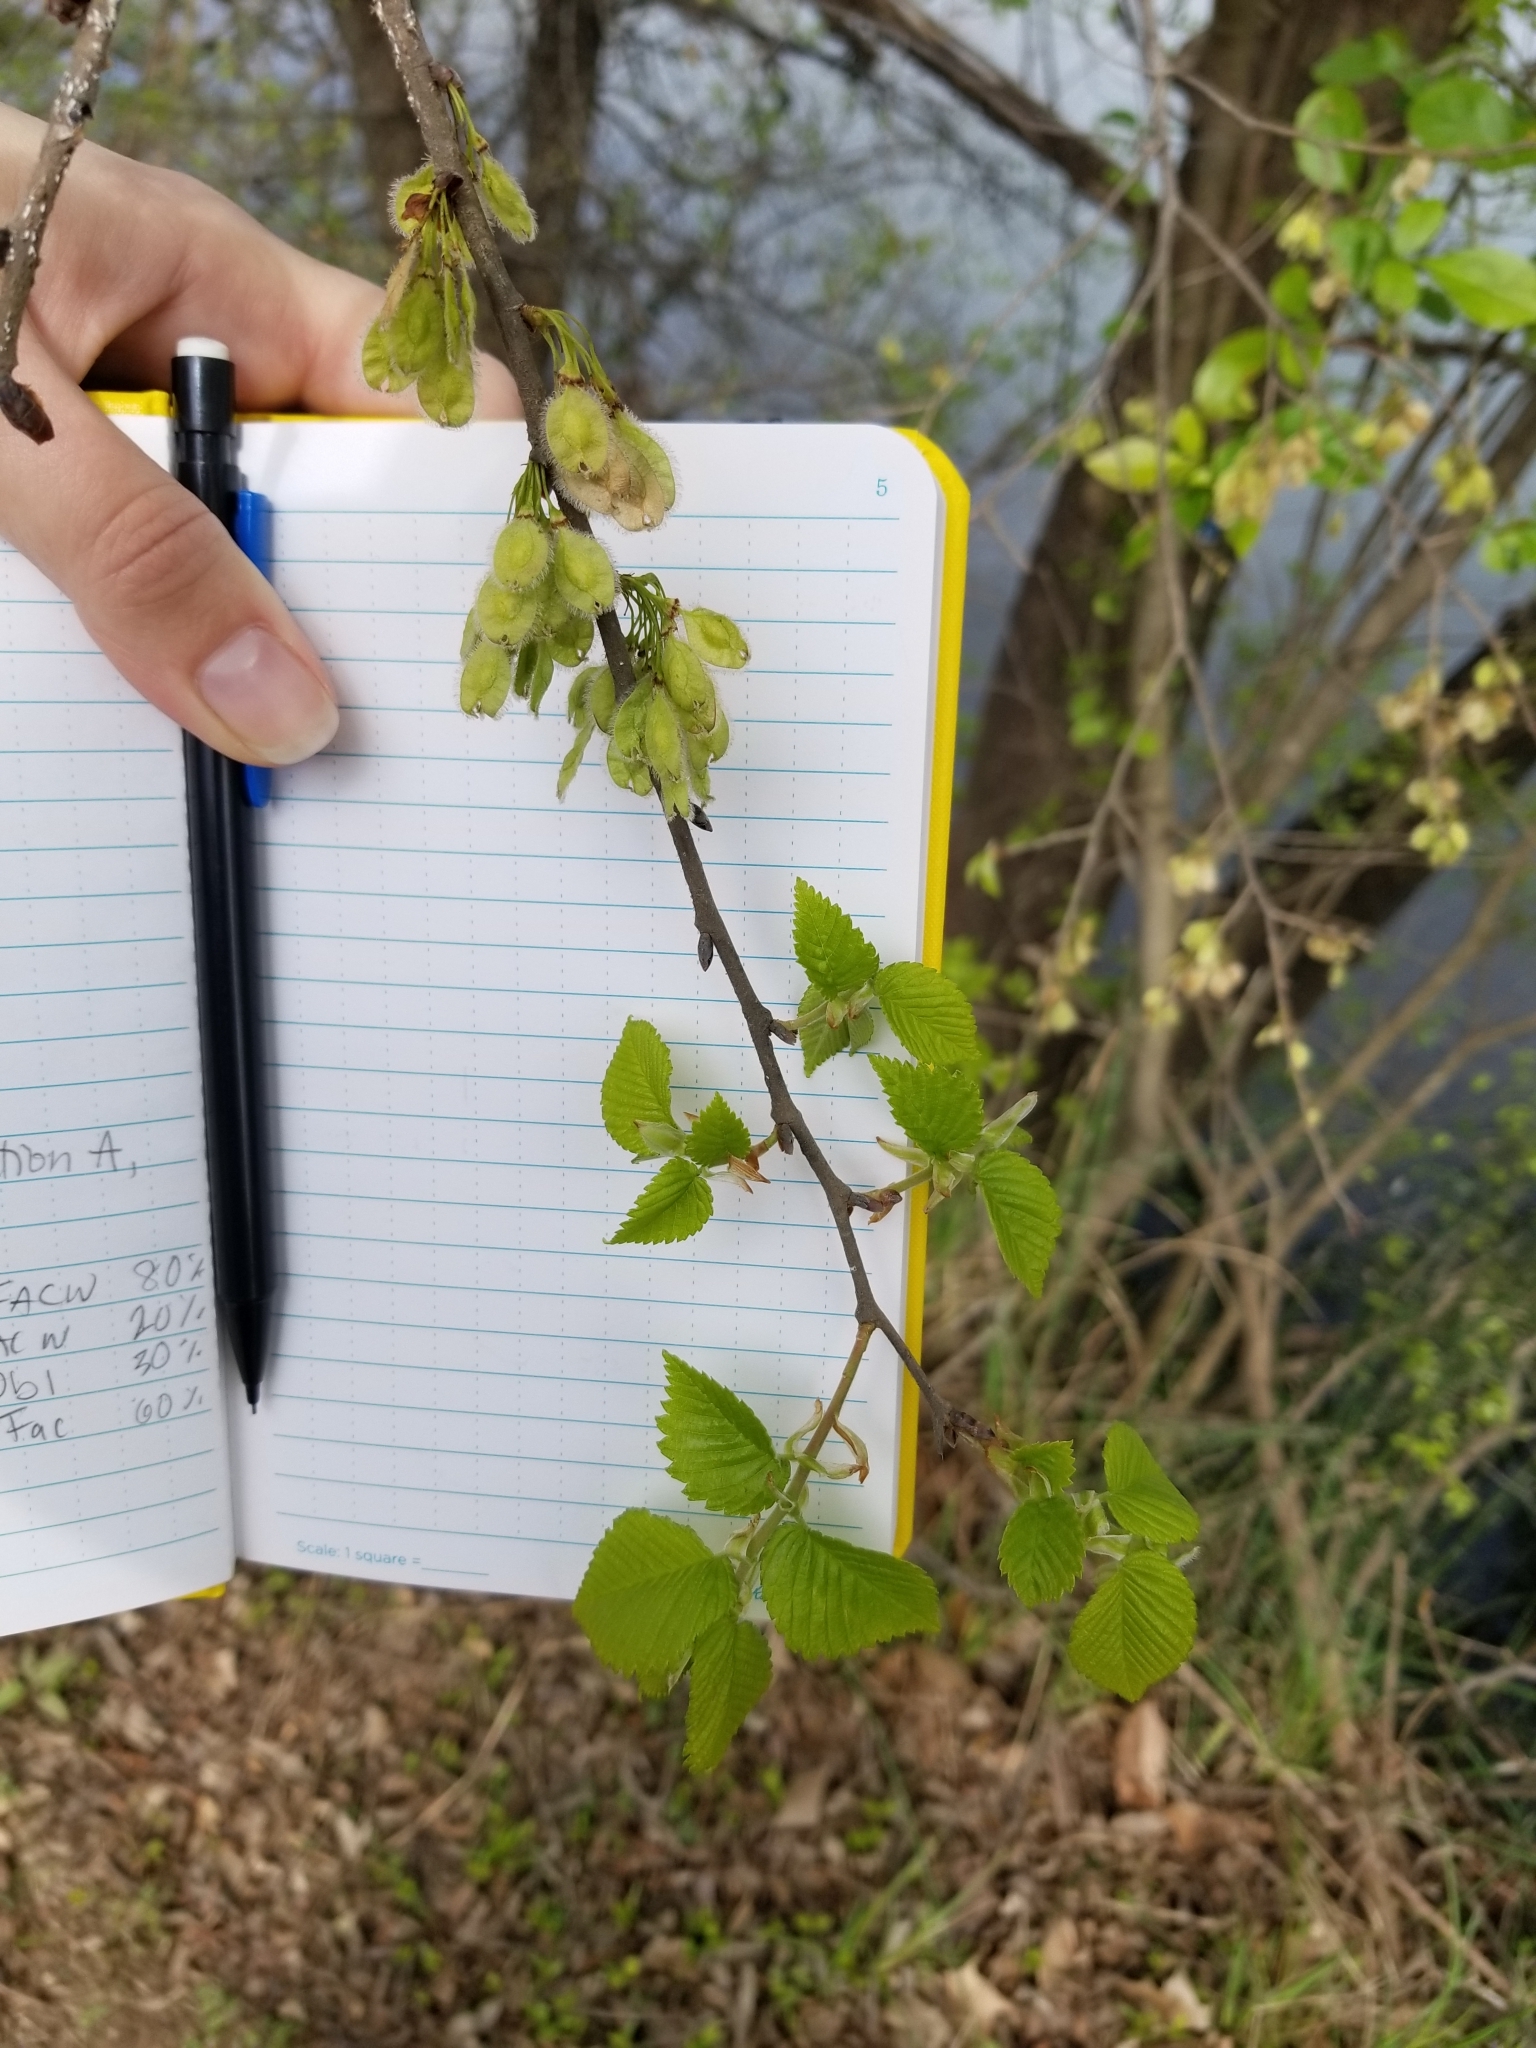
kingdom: Plantae
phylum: Tracheophyta
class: Magnoliopsida
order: Rosales
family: Ulmaceae
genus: Ulmus
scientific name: Ulmus americana
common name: American elm
